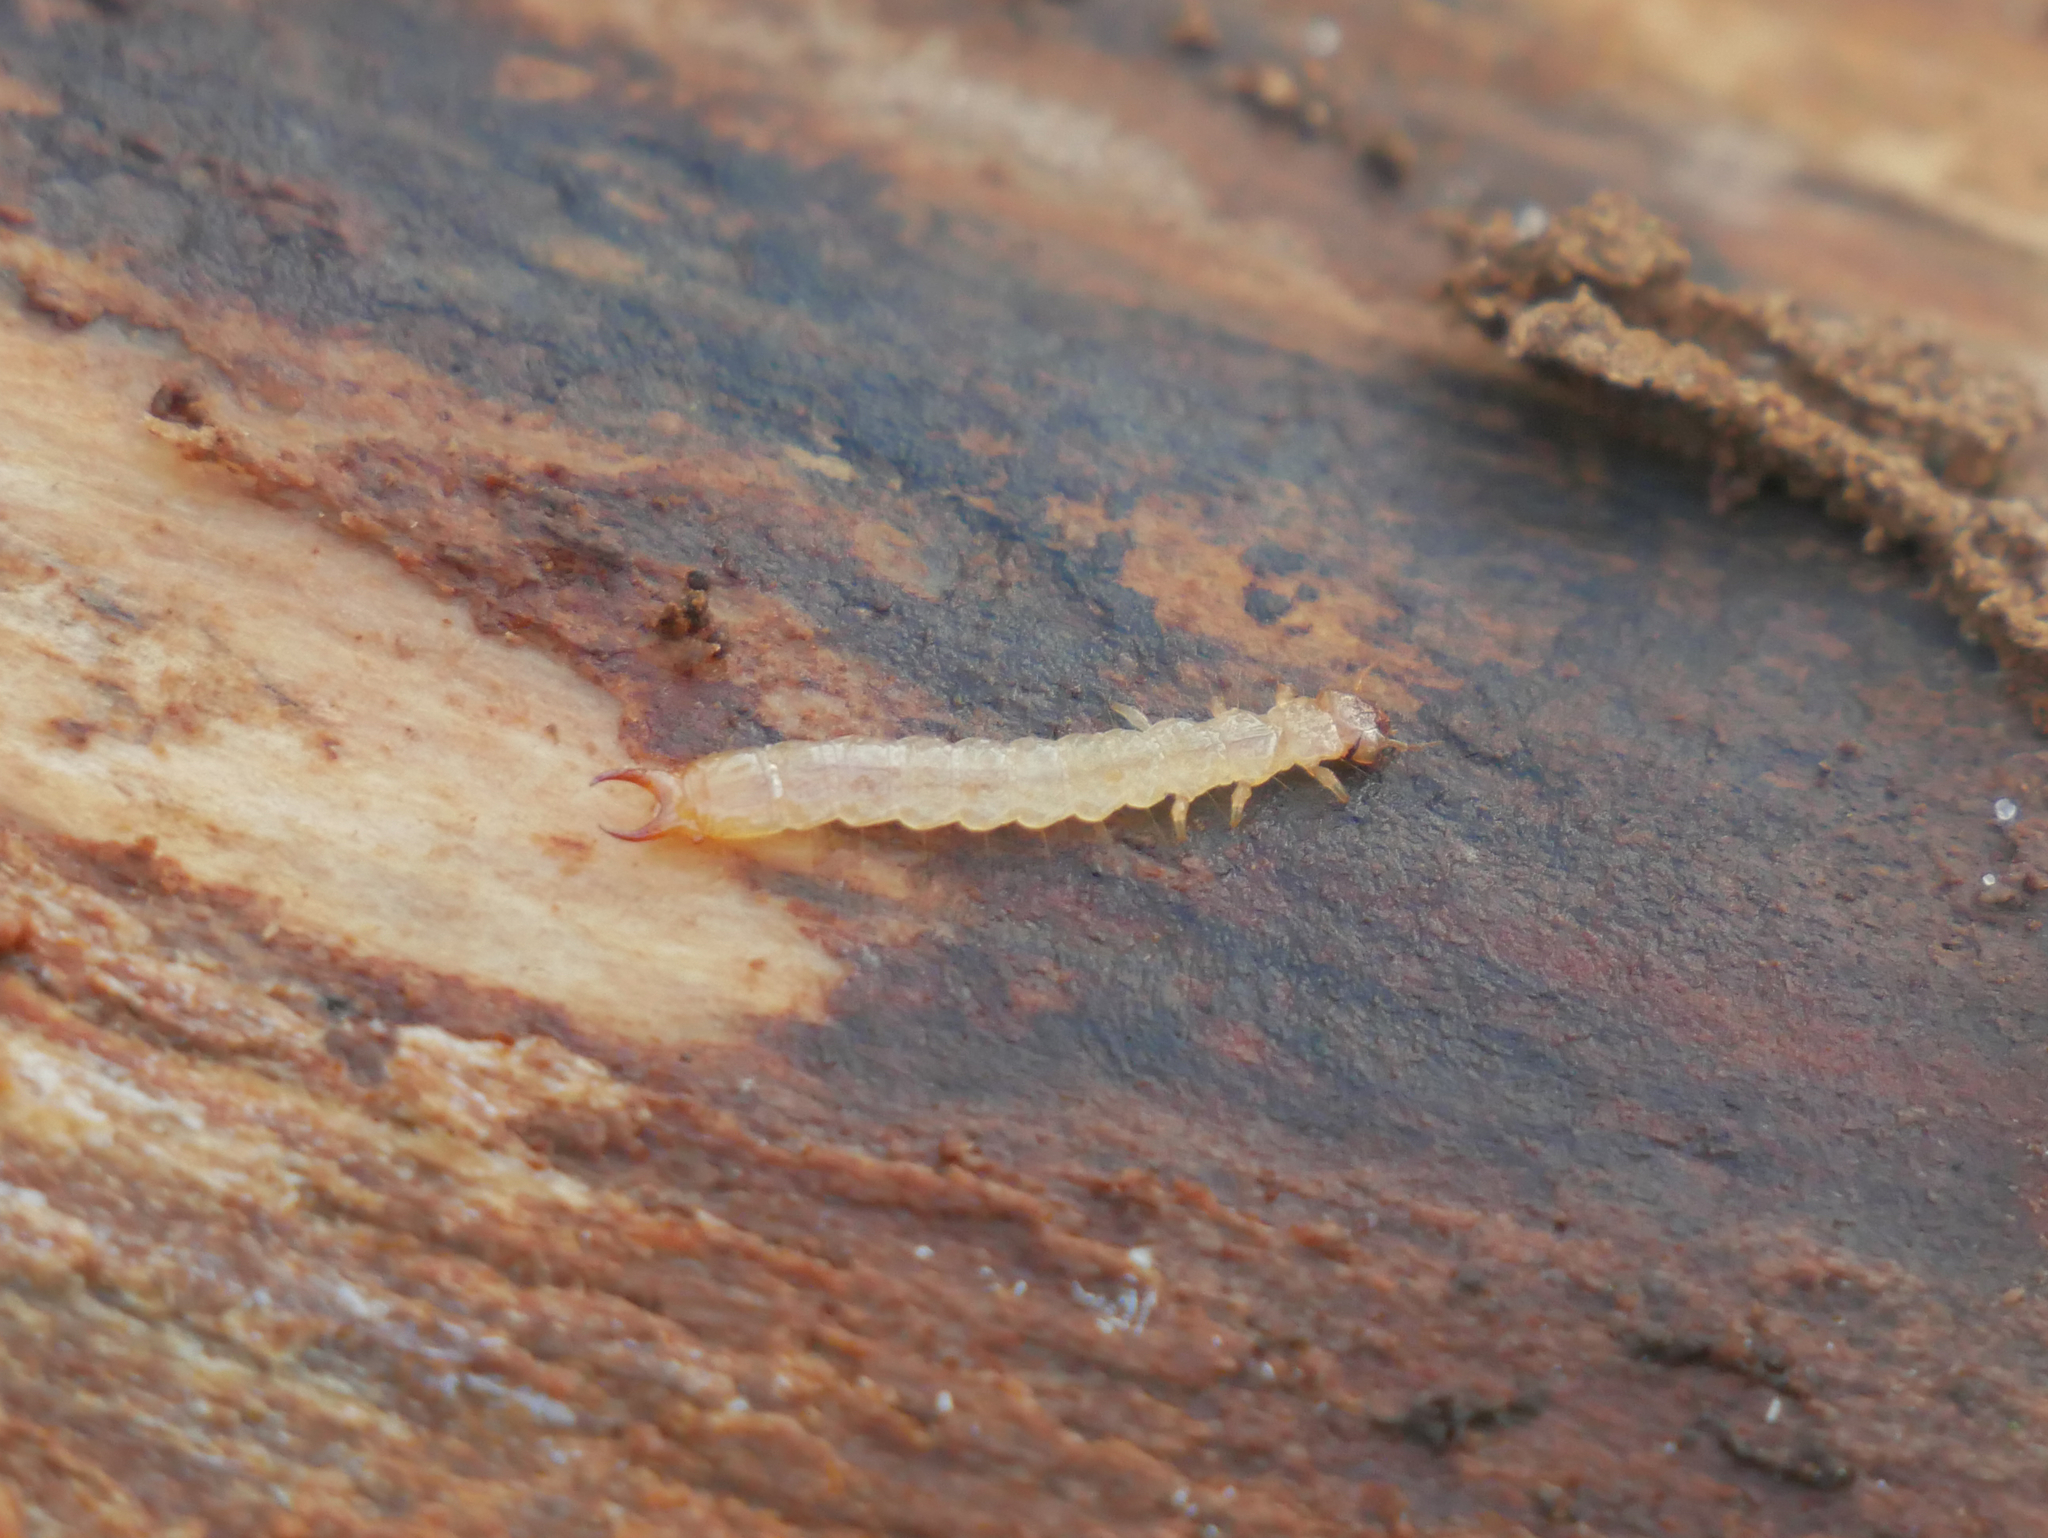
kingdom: Animalia
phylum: Arthropoda
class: Insecta
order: Coleoptera
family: Pyrochroidae
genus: Schizotus
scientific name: Schizotus pectinicornis
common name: Scarce cardinal beetle
